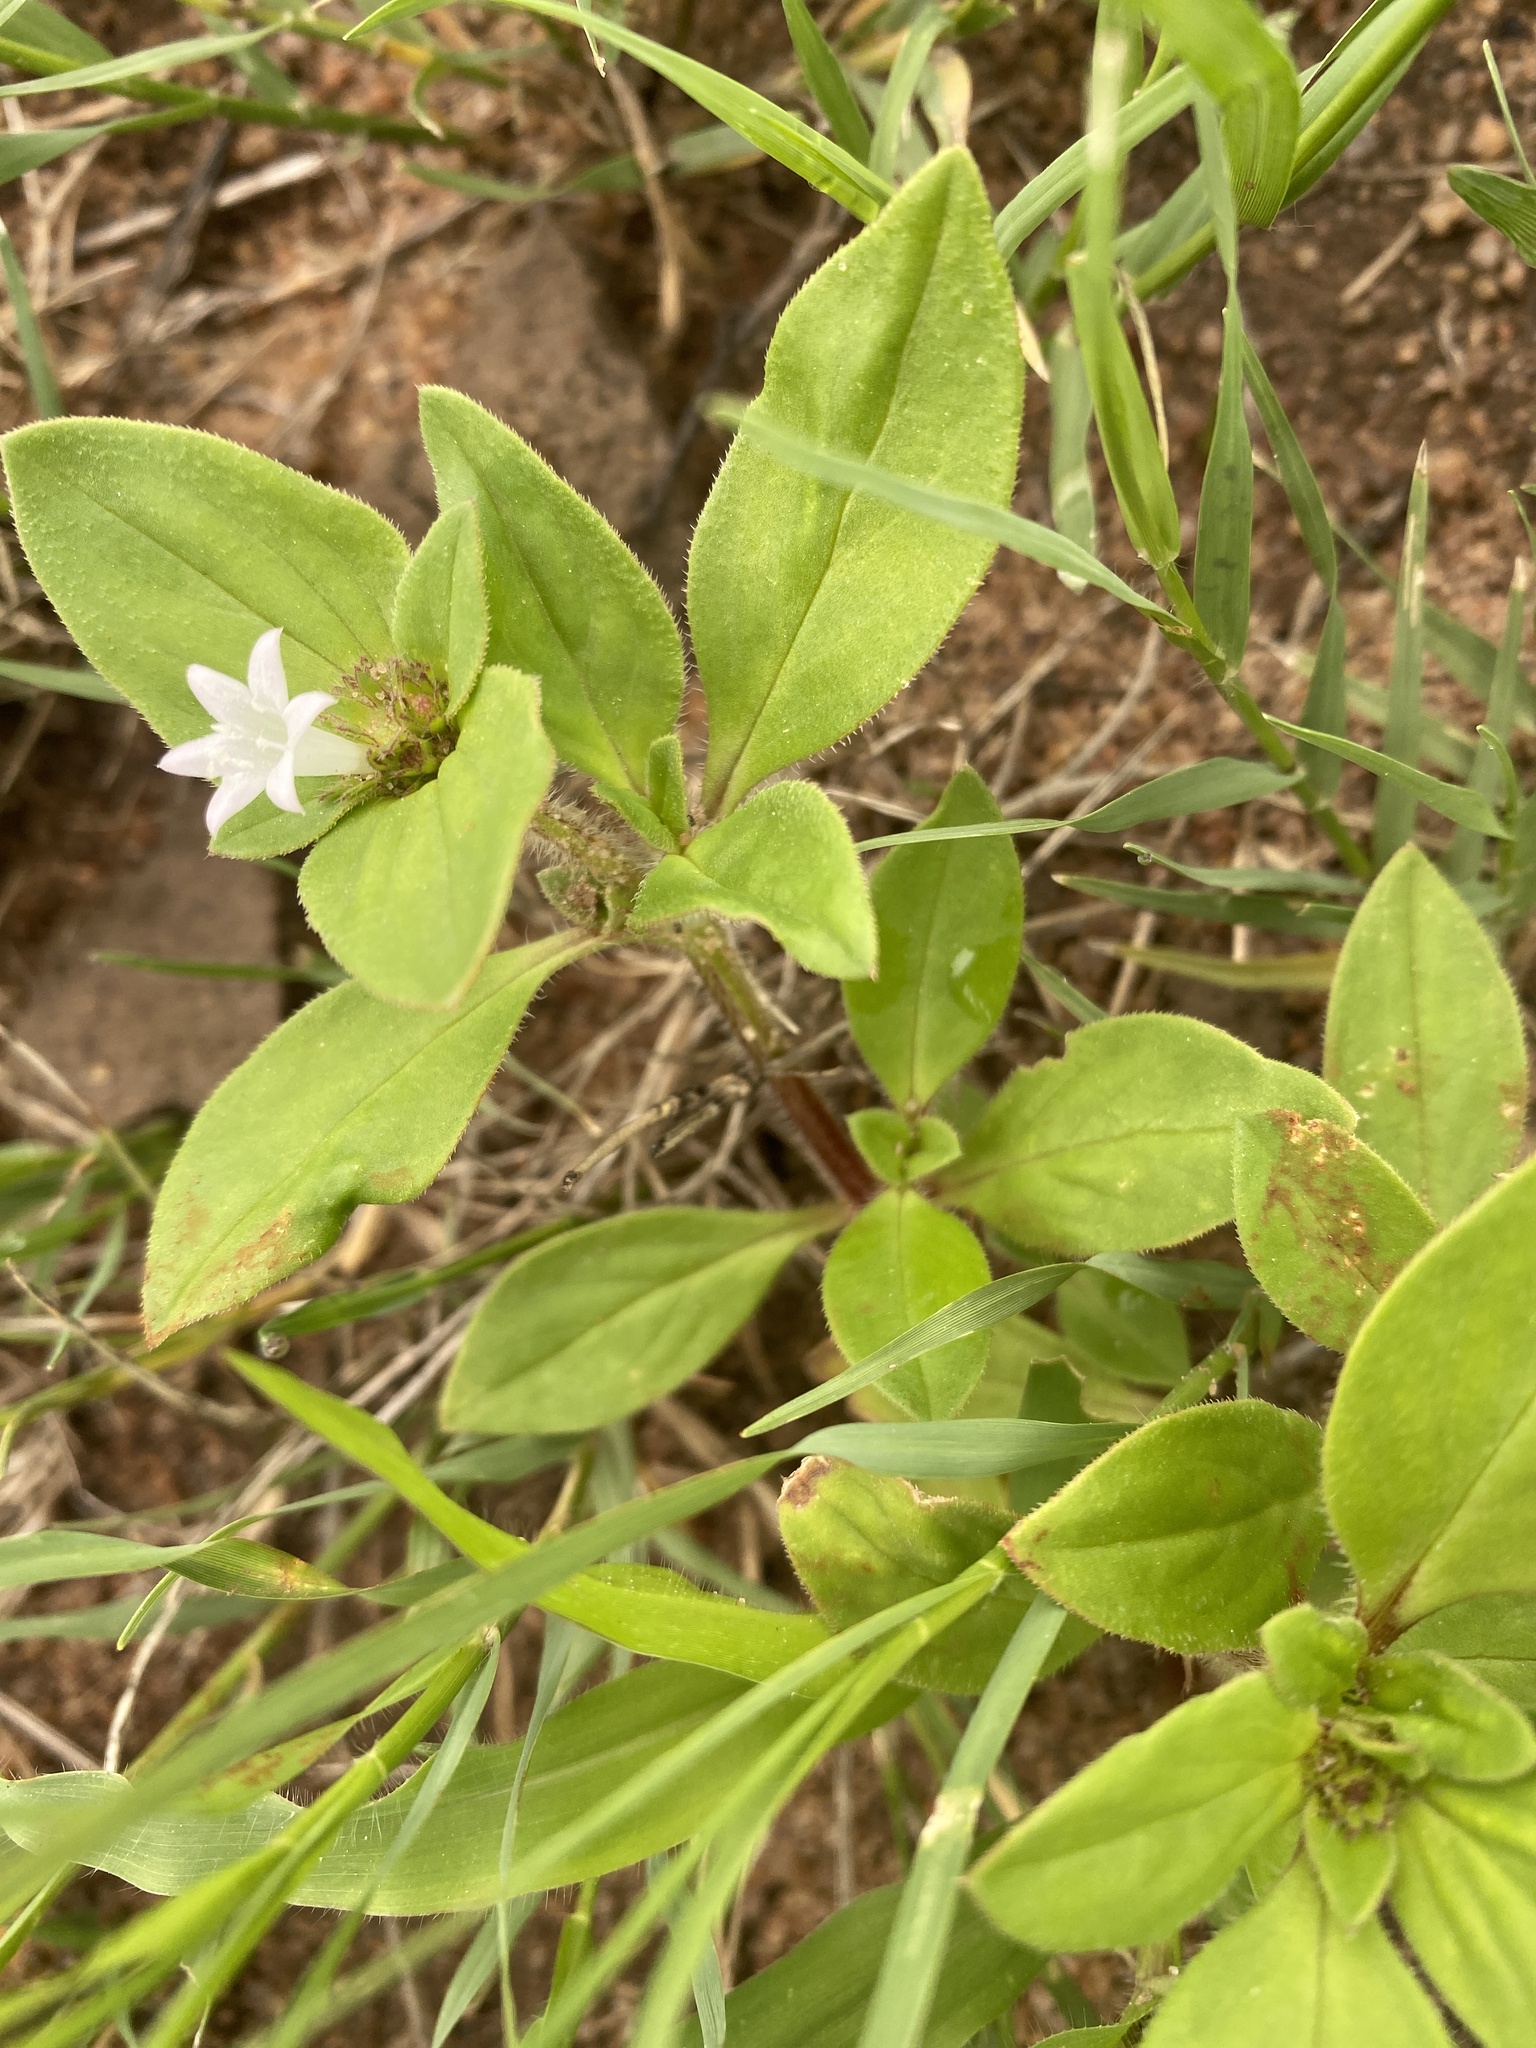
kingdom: Plantae
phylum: Tracheophyta
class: Magnoliopsida
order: Gentianales
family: Rubiaceae
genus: Richardia
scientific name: Richardia brasiliensis
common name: Tropical mexican clover
